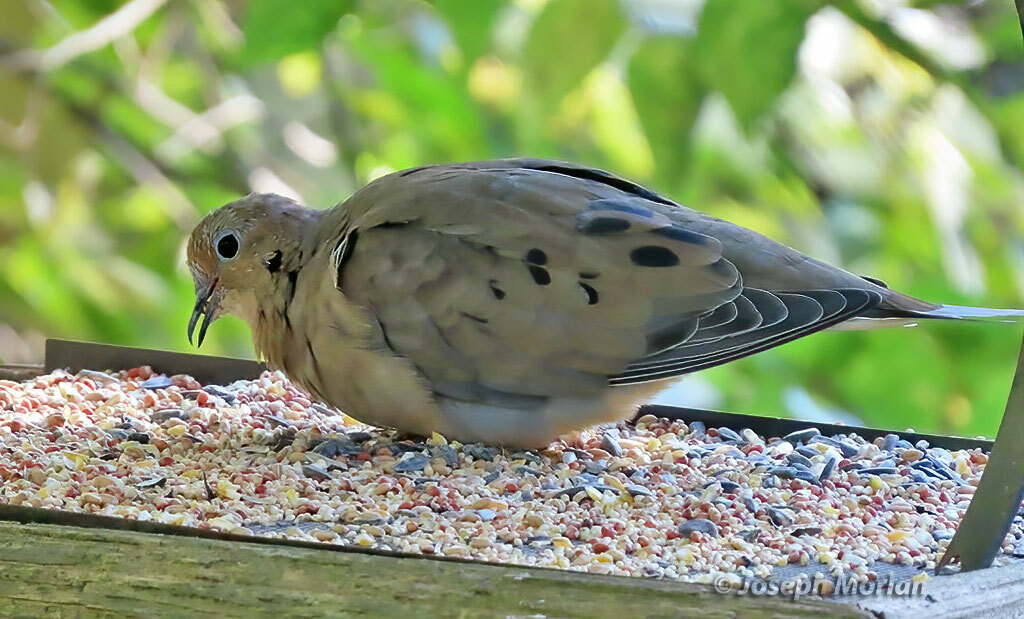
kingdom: Animalia
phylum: Chordata
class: Aves
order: Columbiformes
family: Columbidae
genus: Zenaida
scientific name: Zenaida macroura
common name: Mourning dove
